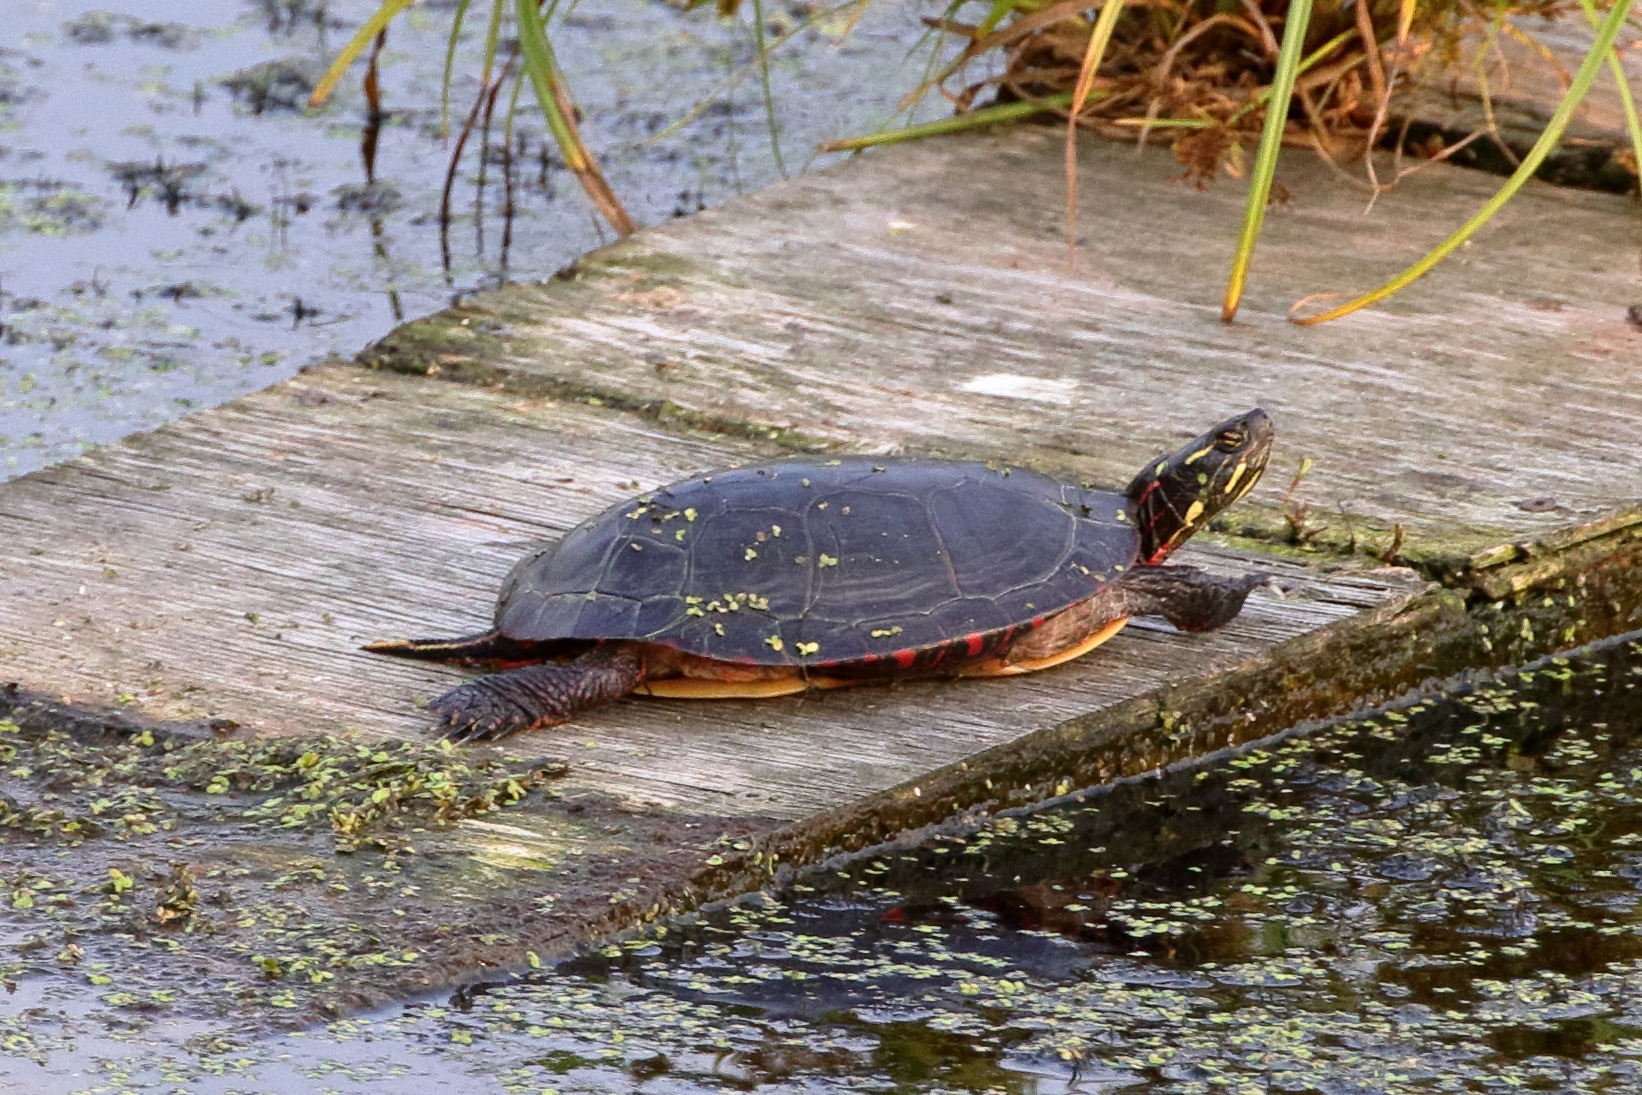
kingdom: Animalia
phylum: Chordata
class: Testudines
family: Emydidae
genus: Chrysemys
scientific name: Chrysemys picta
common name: Painted turtle
